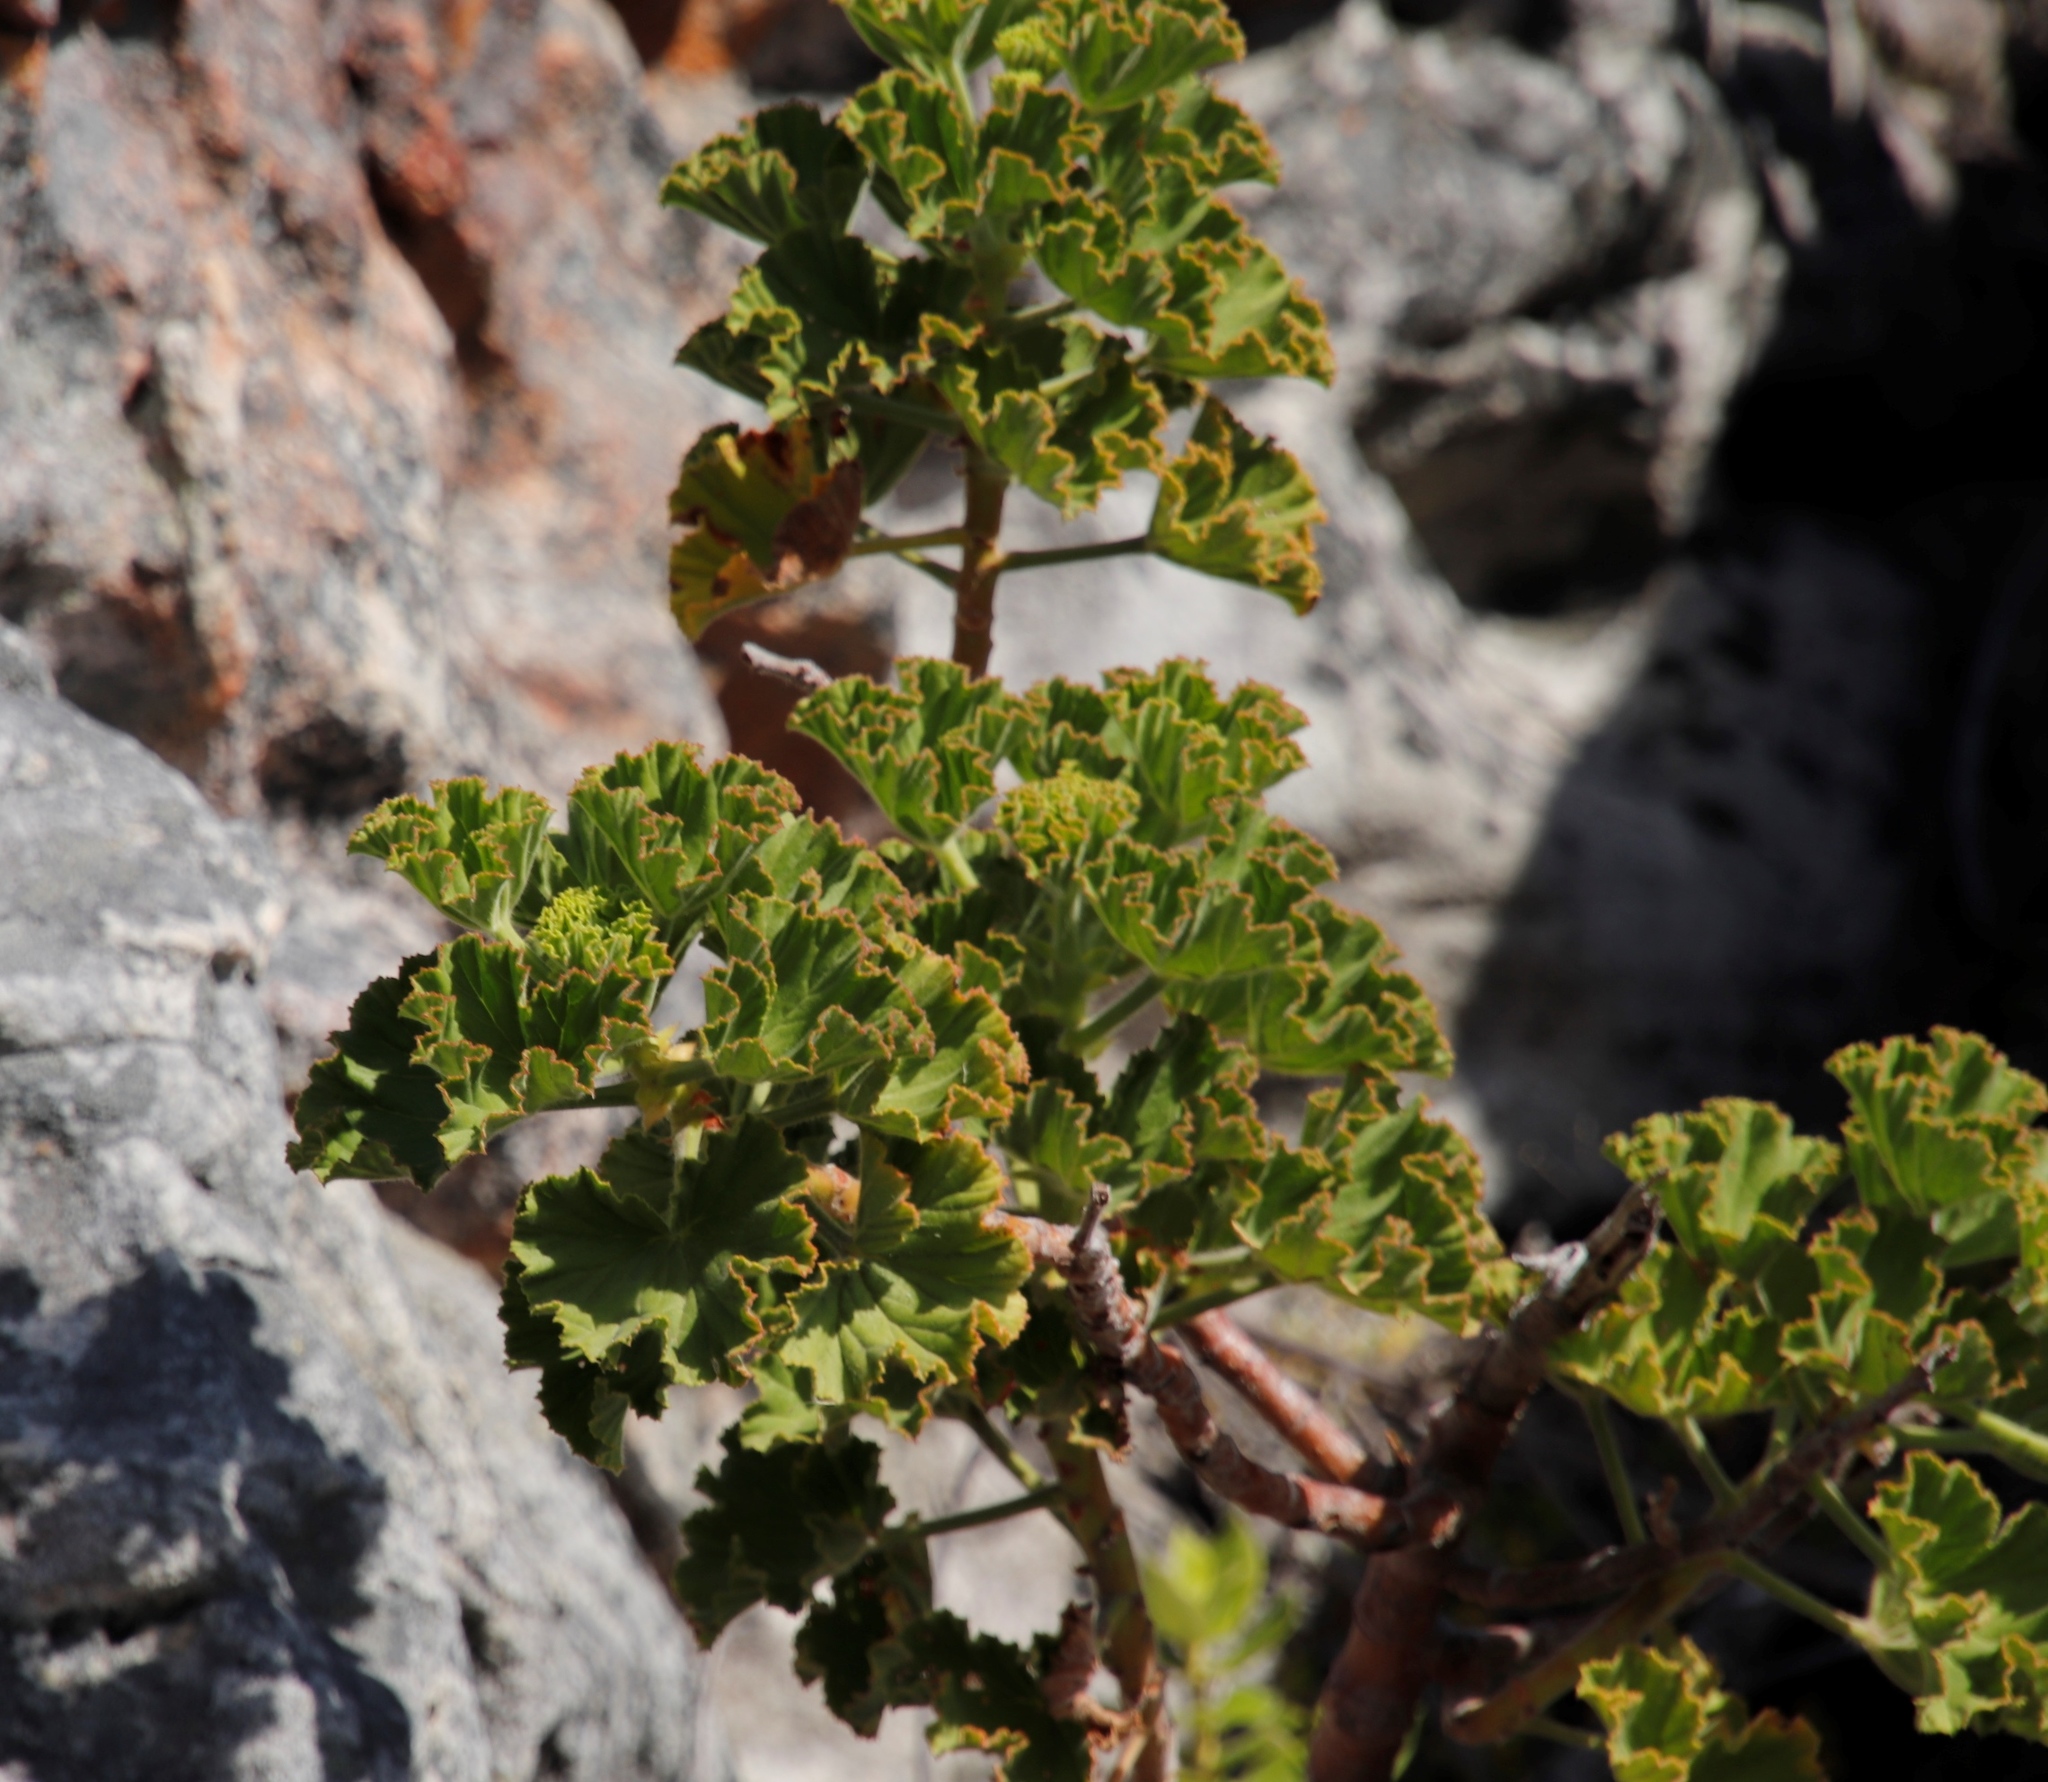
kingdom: Plantae
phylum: Tracheophyta
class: Magnoliopsida
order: Geraniales
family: Geraniaceae
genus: Pelargonium
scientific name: Pelargonium cucullatum
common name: Tree pelargonium
